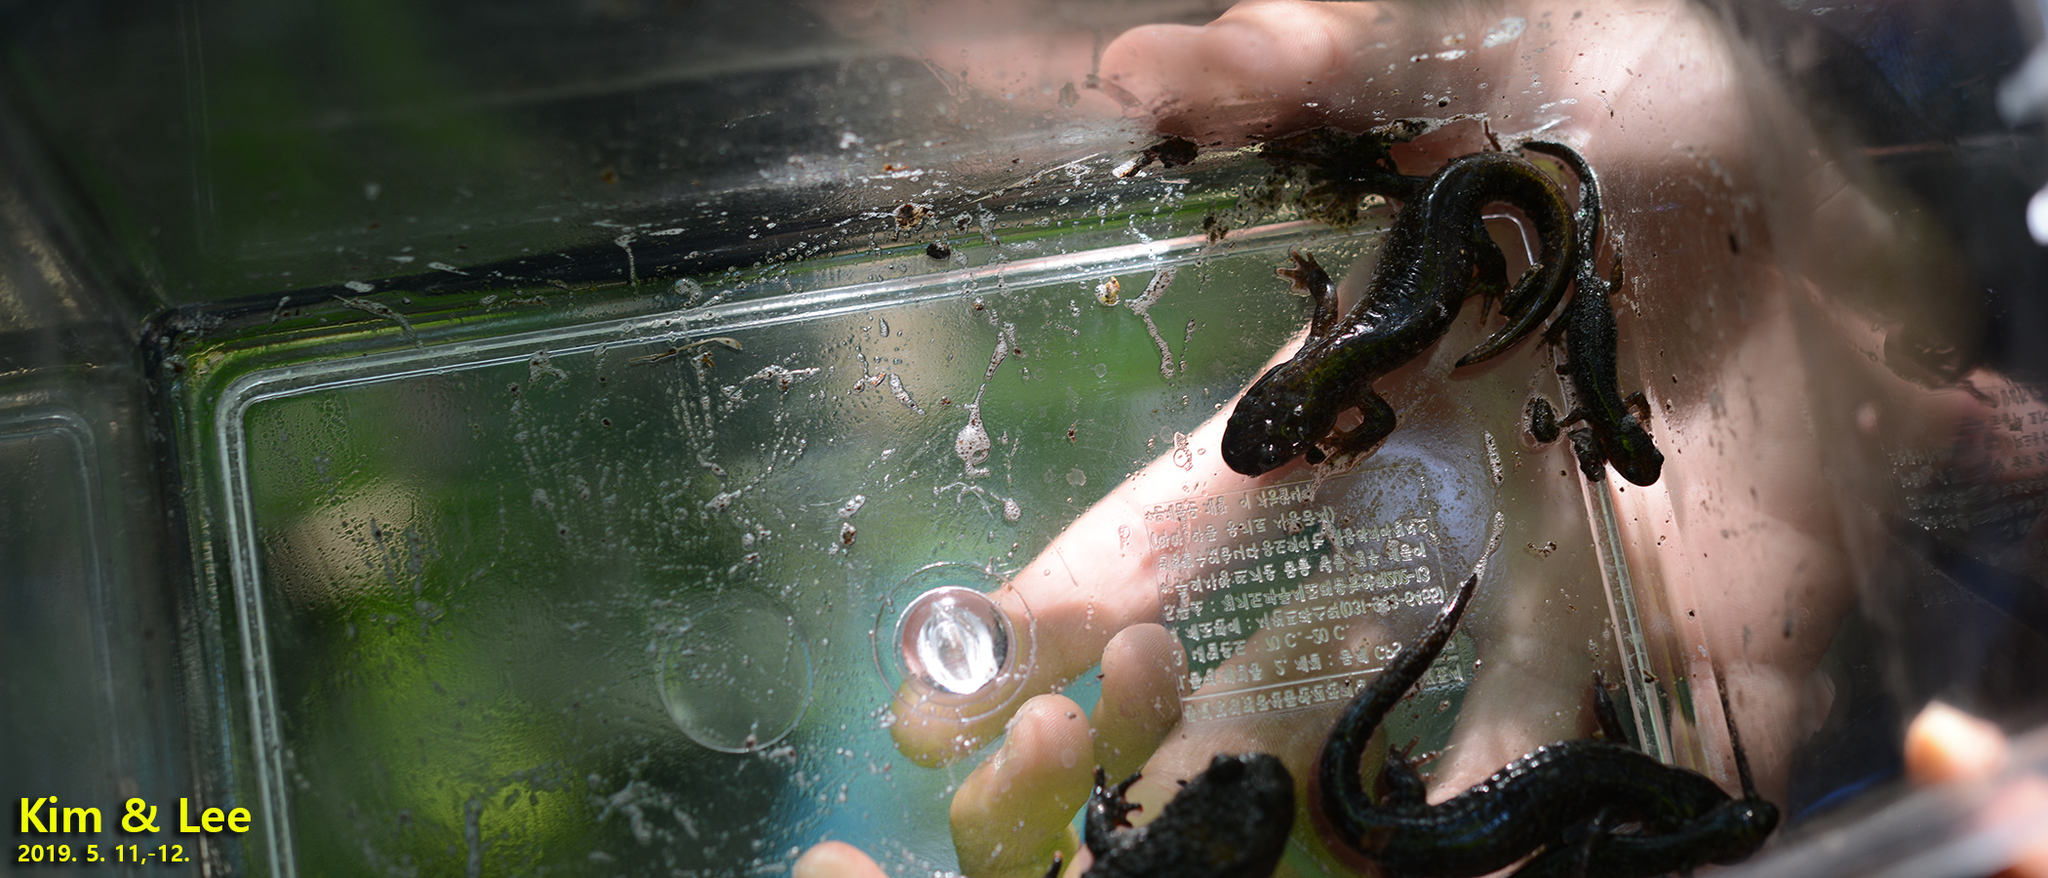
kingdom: Animalia
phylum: Chordata
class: Amphibia
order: Caudata
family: Hynobiidae
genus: Hynobius
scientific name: Hynobius leechii
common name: Gensan salamander
